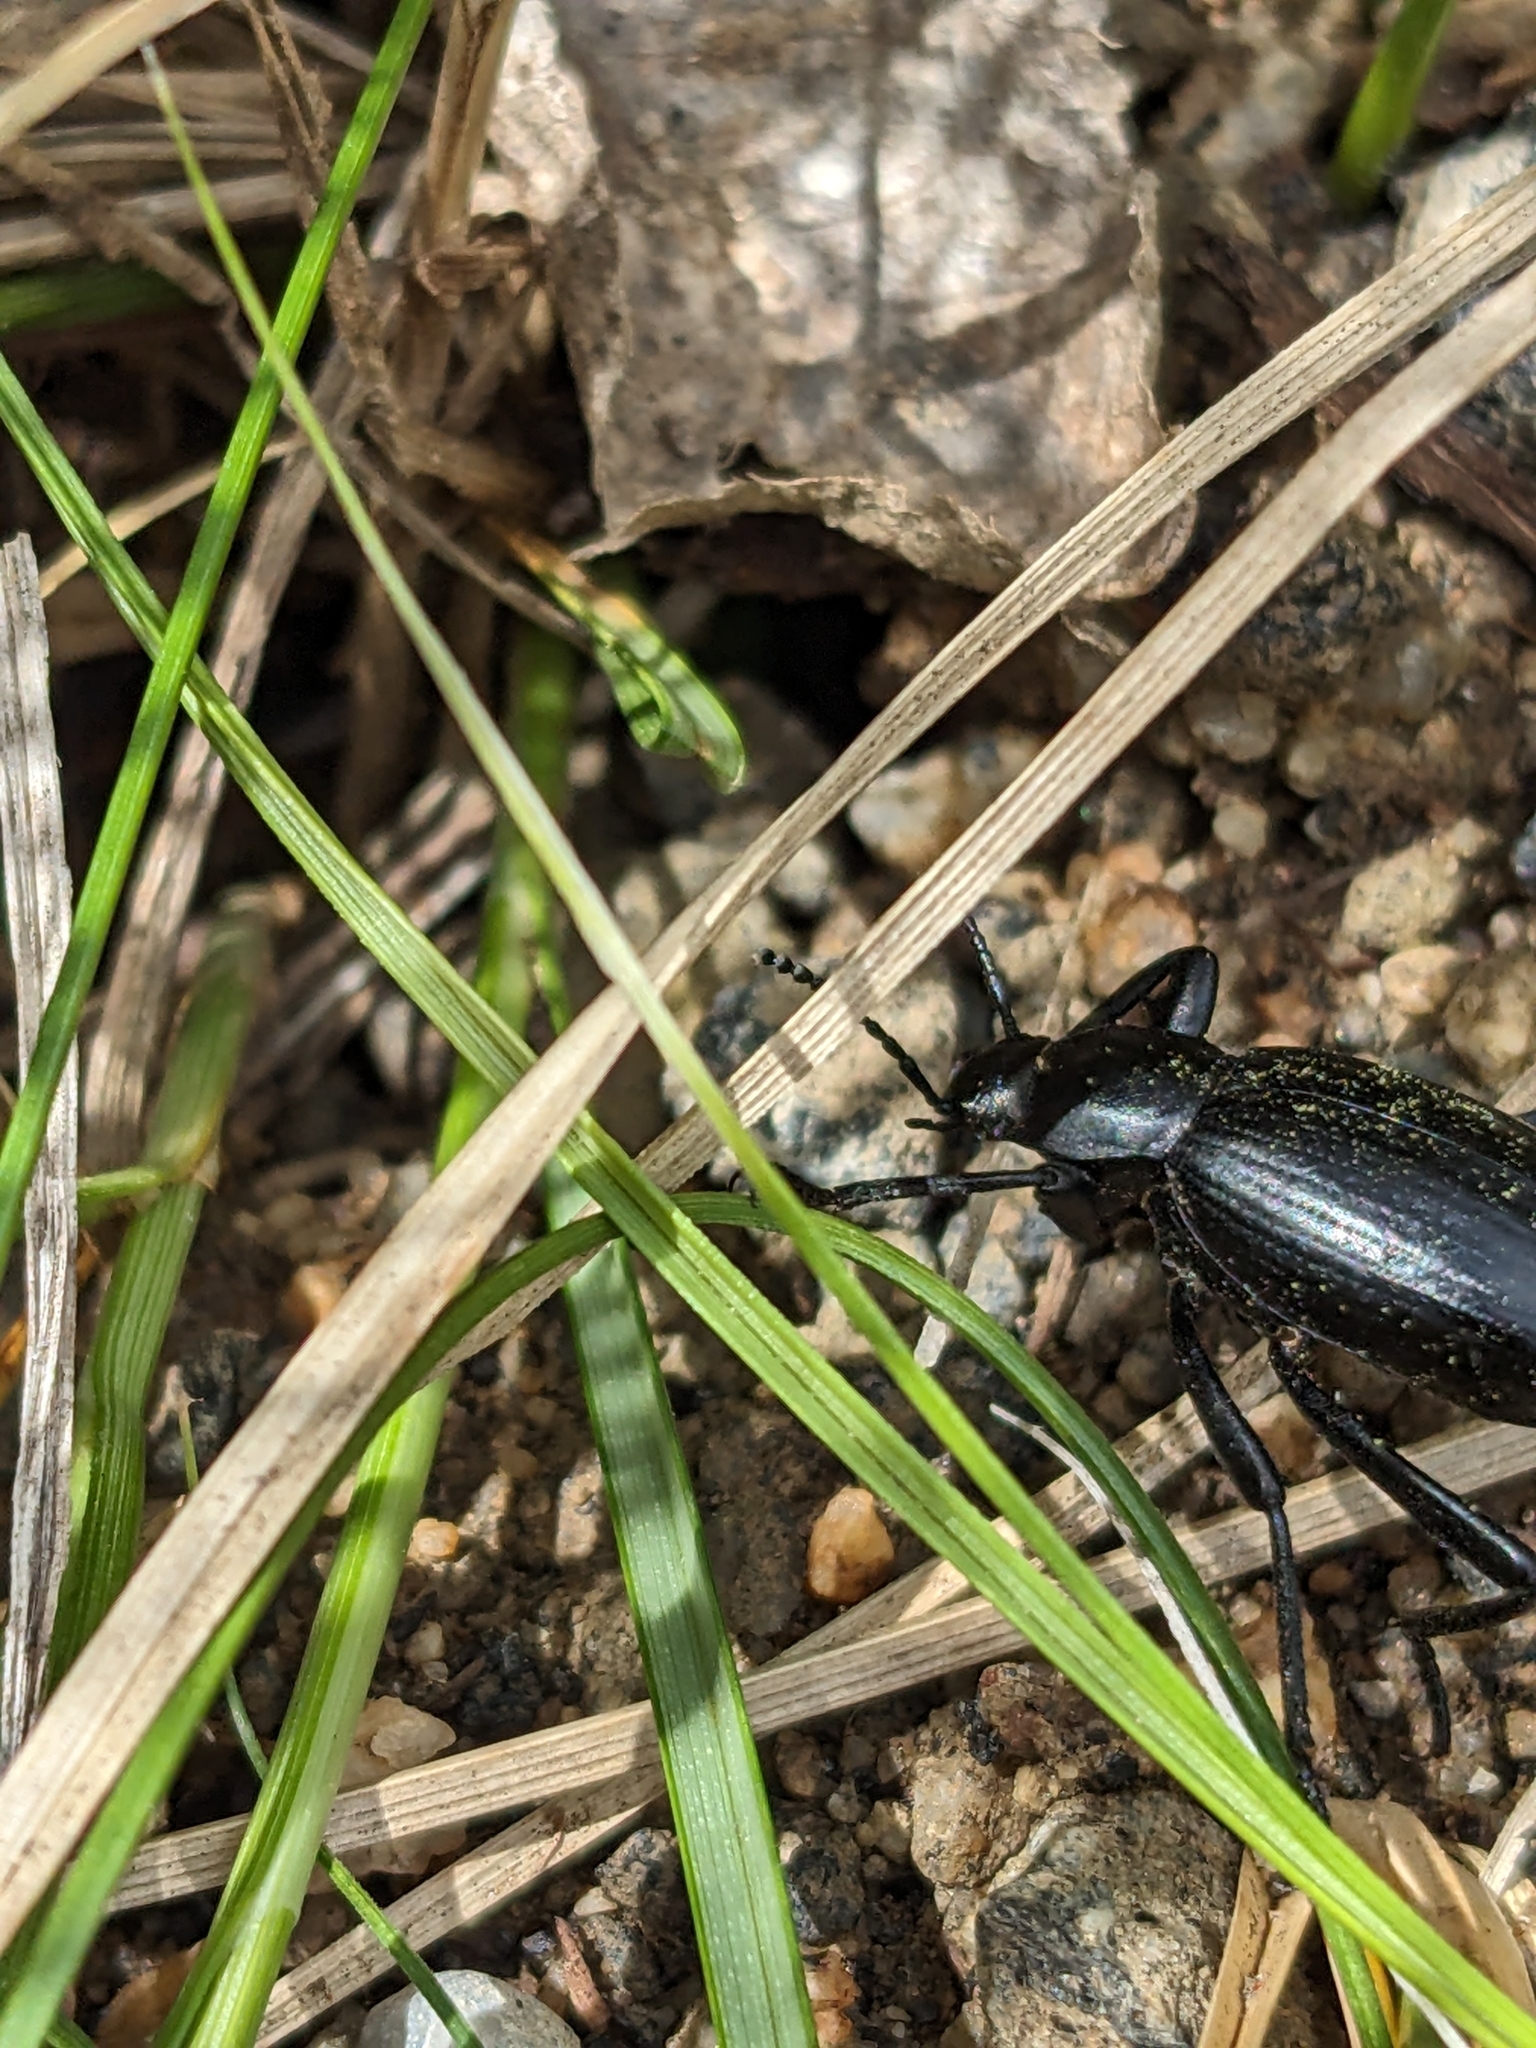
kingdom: Animalia
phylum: Arthropoda
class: Insecta
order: Coleoptera
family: Tenebrionidae
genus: Eleodes
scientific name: Eleodes gracilis
